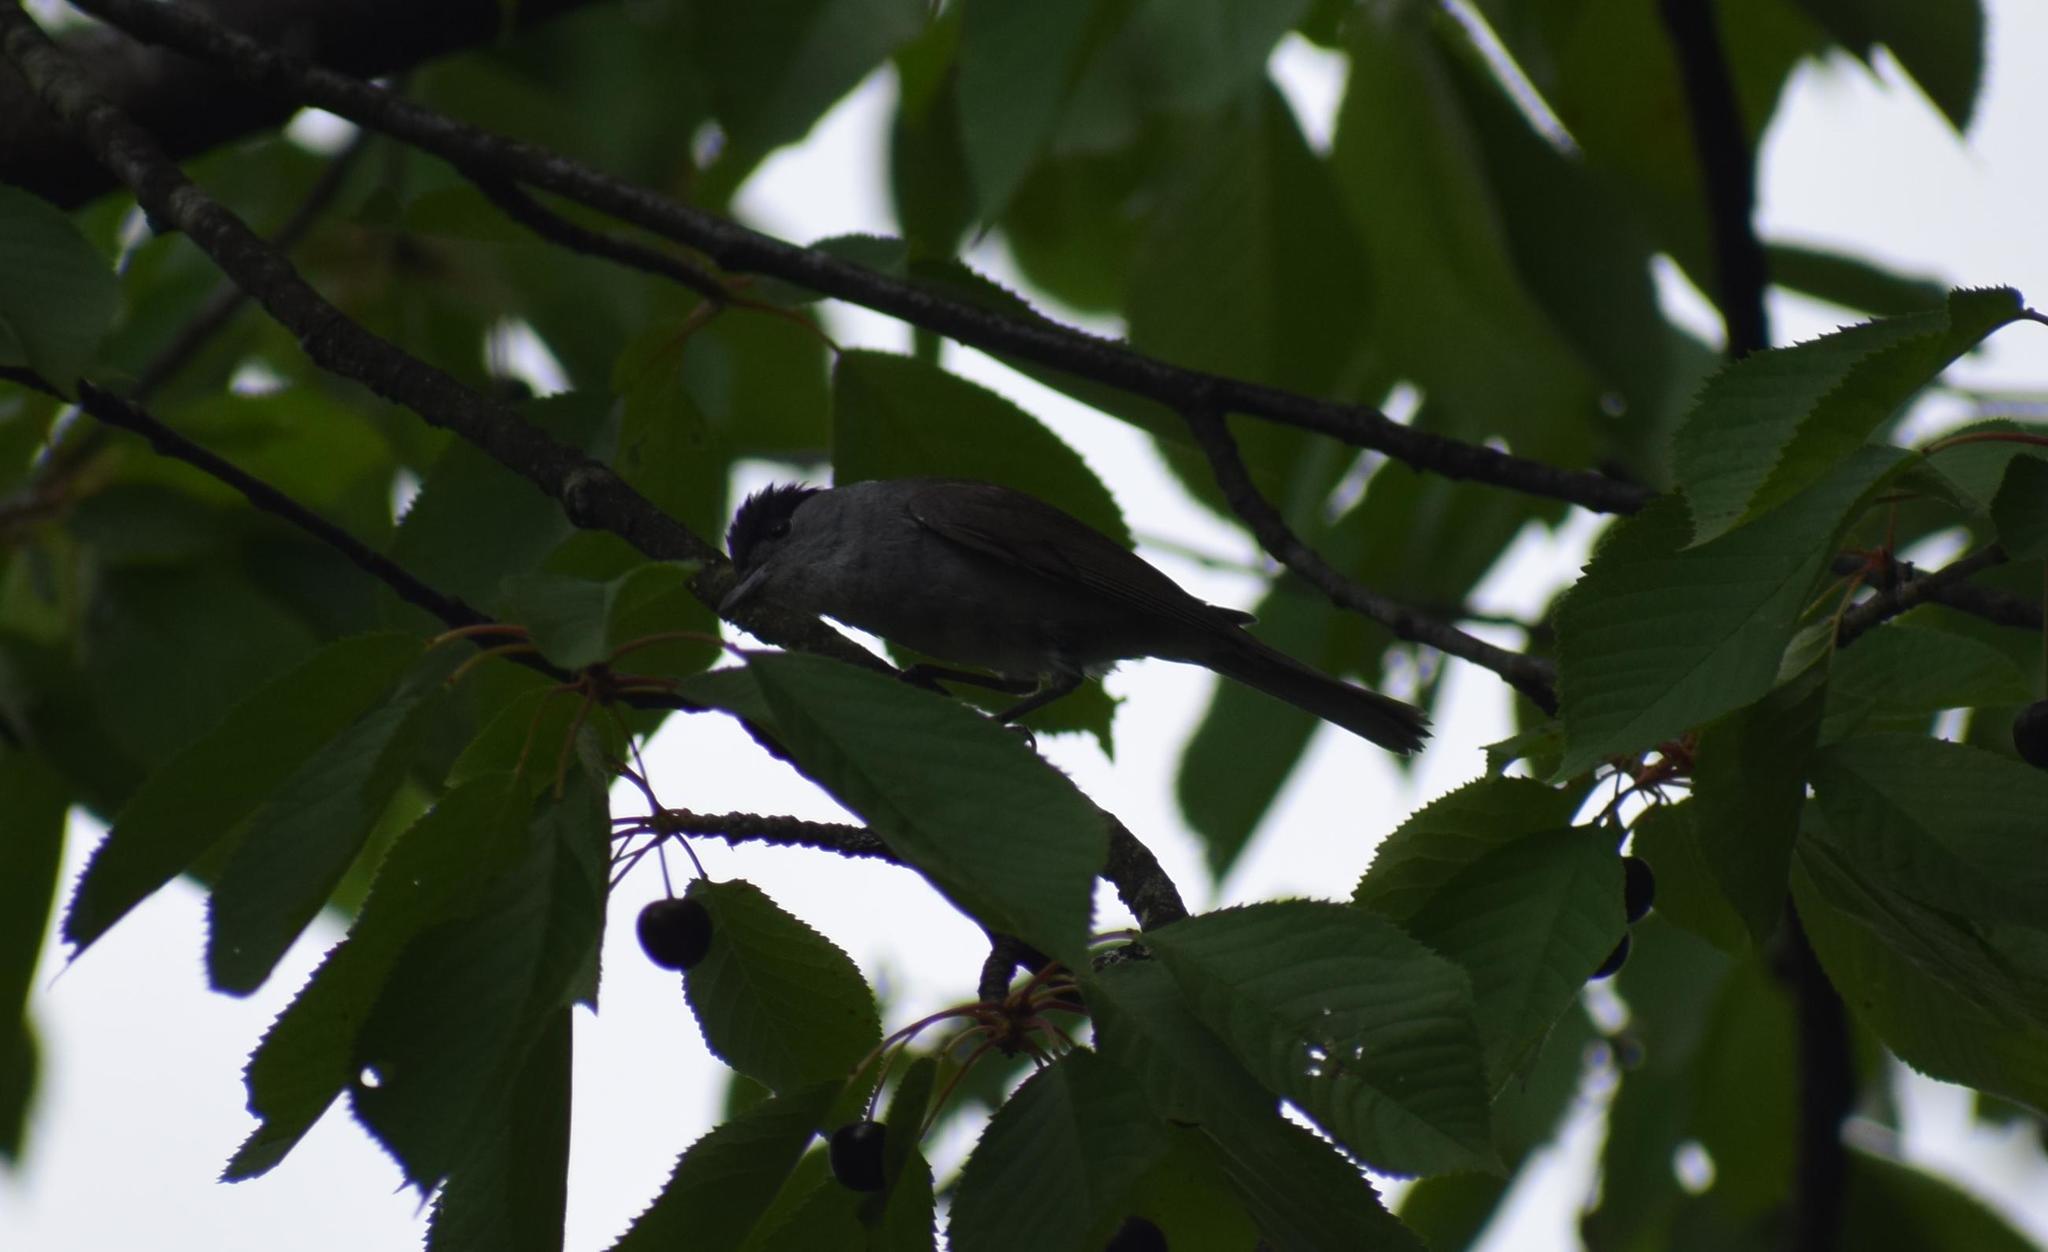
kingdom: Animalia
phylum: Chordata
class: Aves
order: Passeriformes
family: Sylviidae
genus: Sylvia
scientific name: Sylvia atricapilla
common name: Eurasian blackcap
